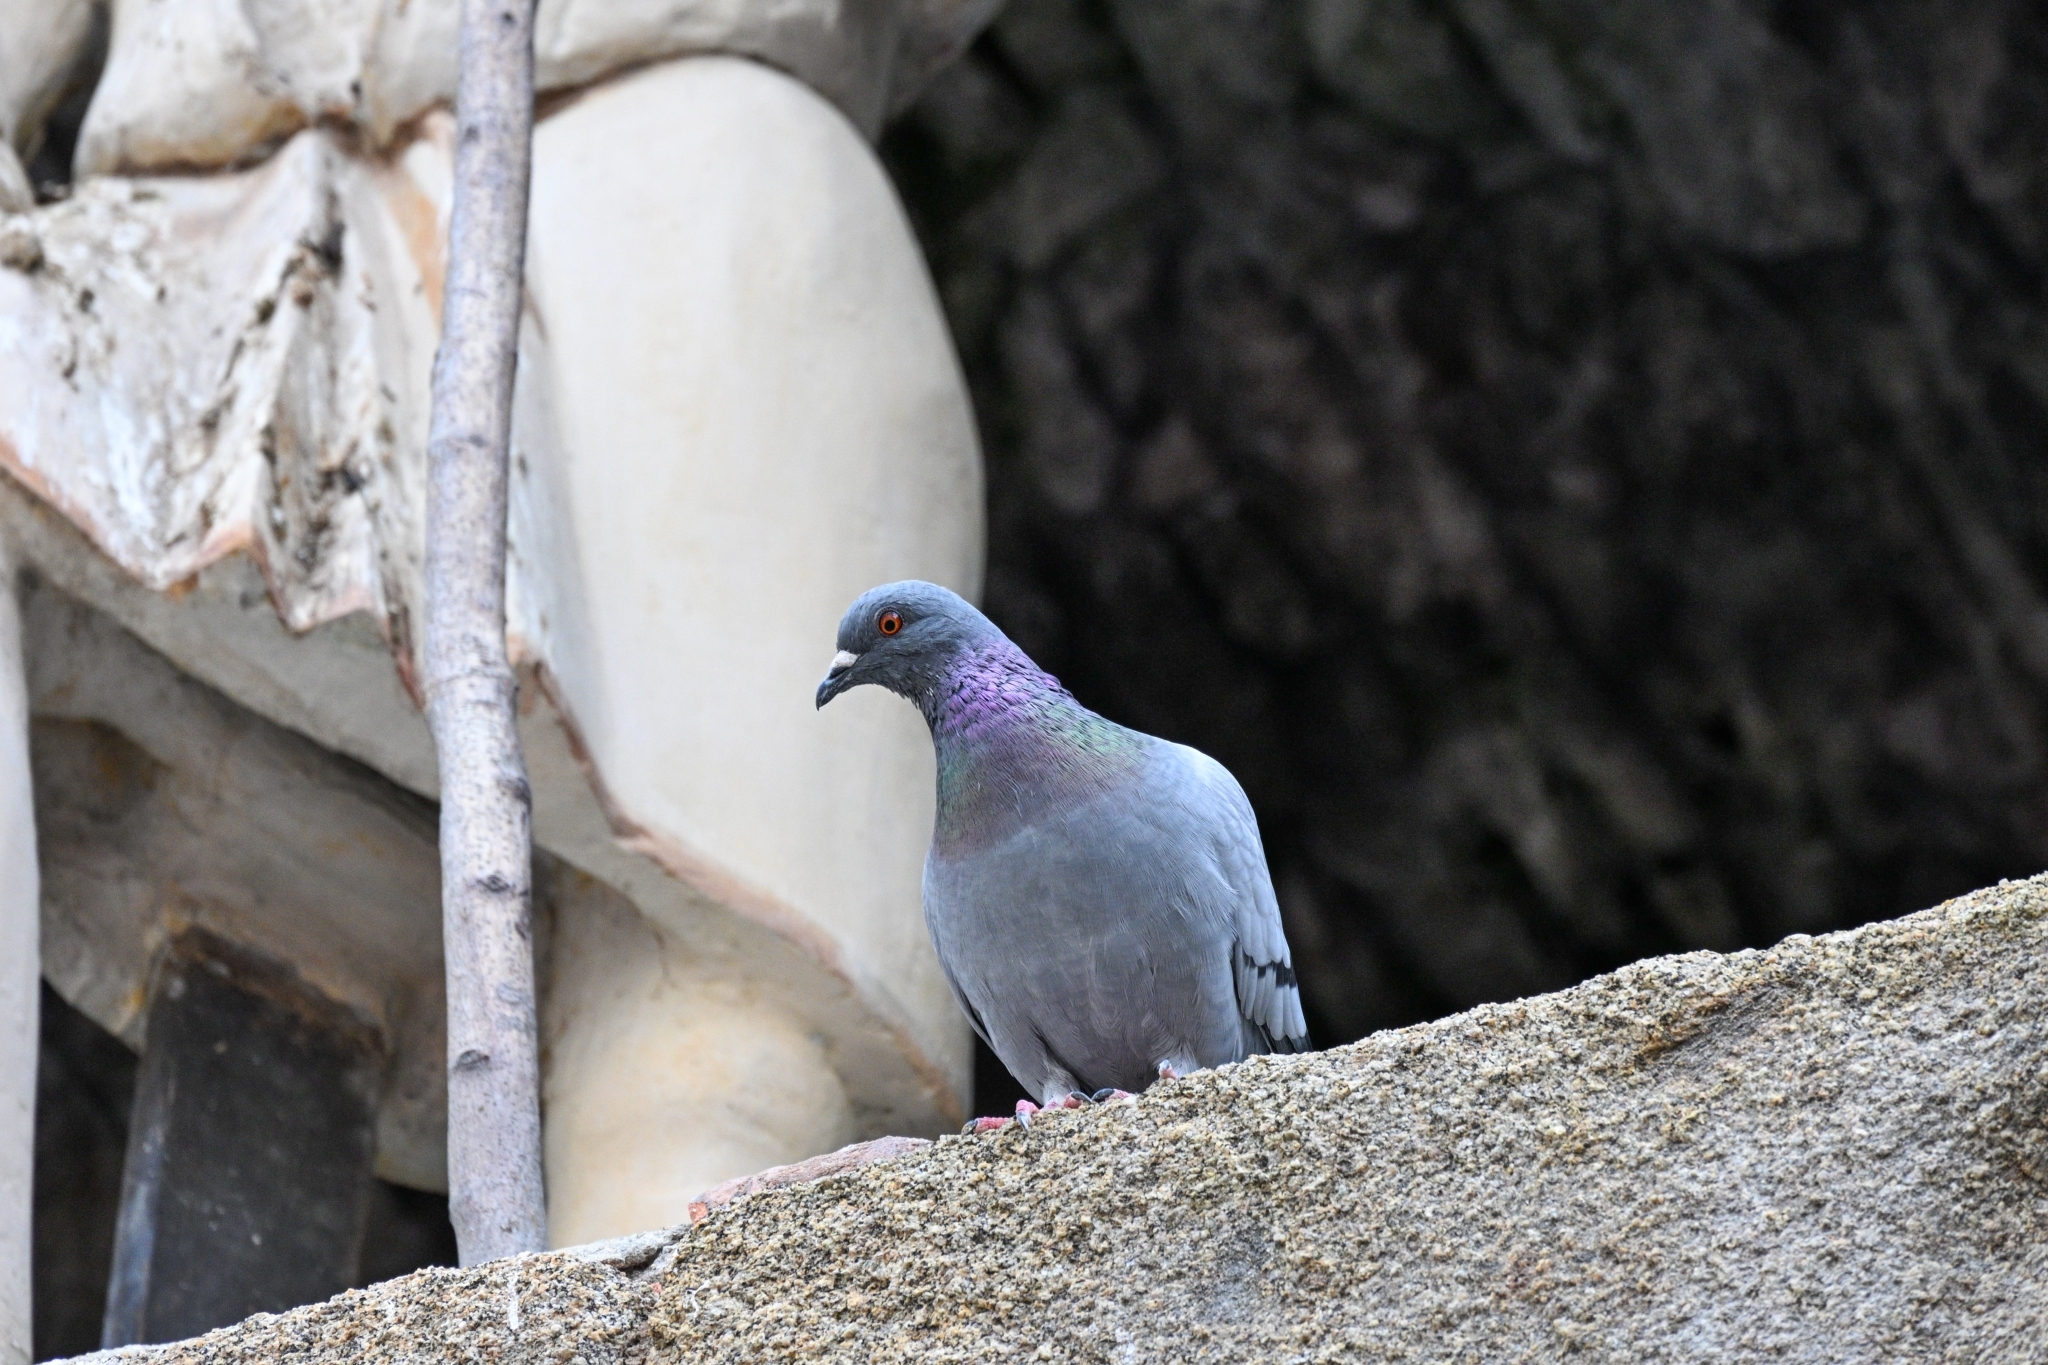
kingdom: Animalia
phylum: Chordata
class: Aves
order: Columbiformes
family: Columbidae
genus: Columba
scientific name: Columba livia
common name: Rock pigeon
